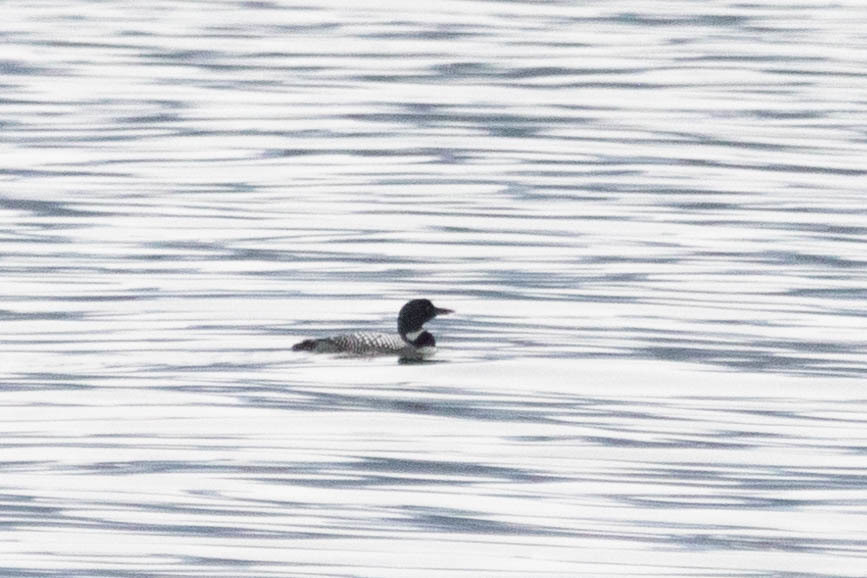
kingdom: Animalia
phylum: Chordata
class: Aves
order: Gaviiformes
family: Gaviidae
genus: Gavia
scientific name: Gavia immer
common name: Common loon
